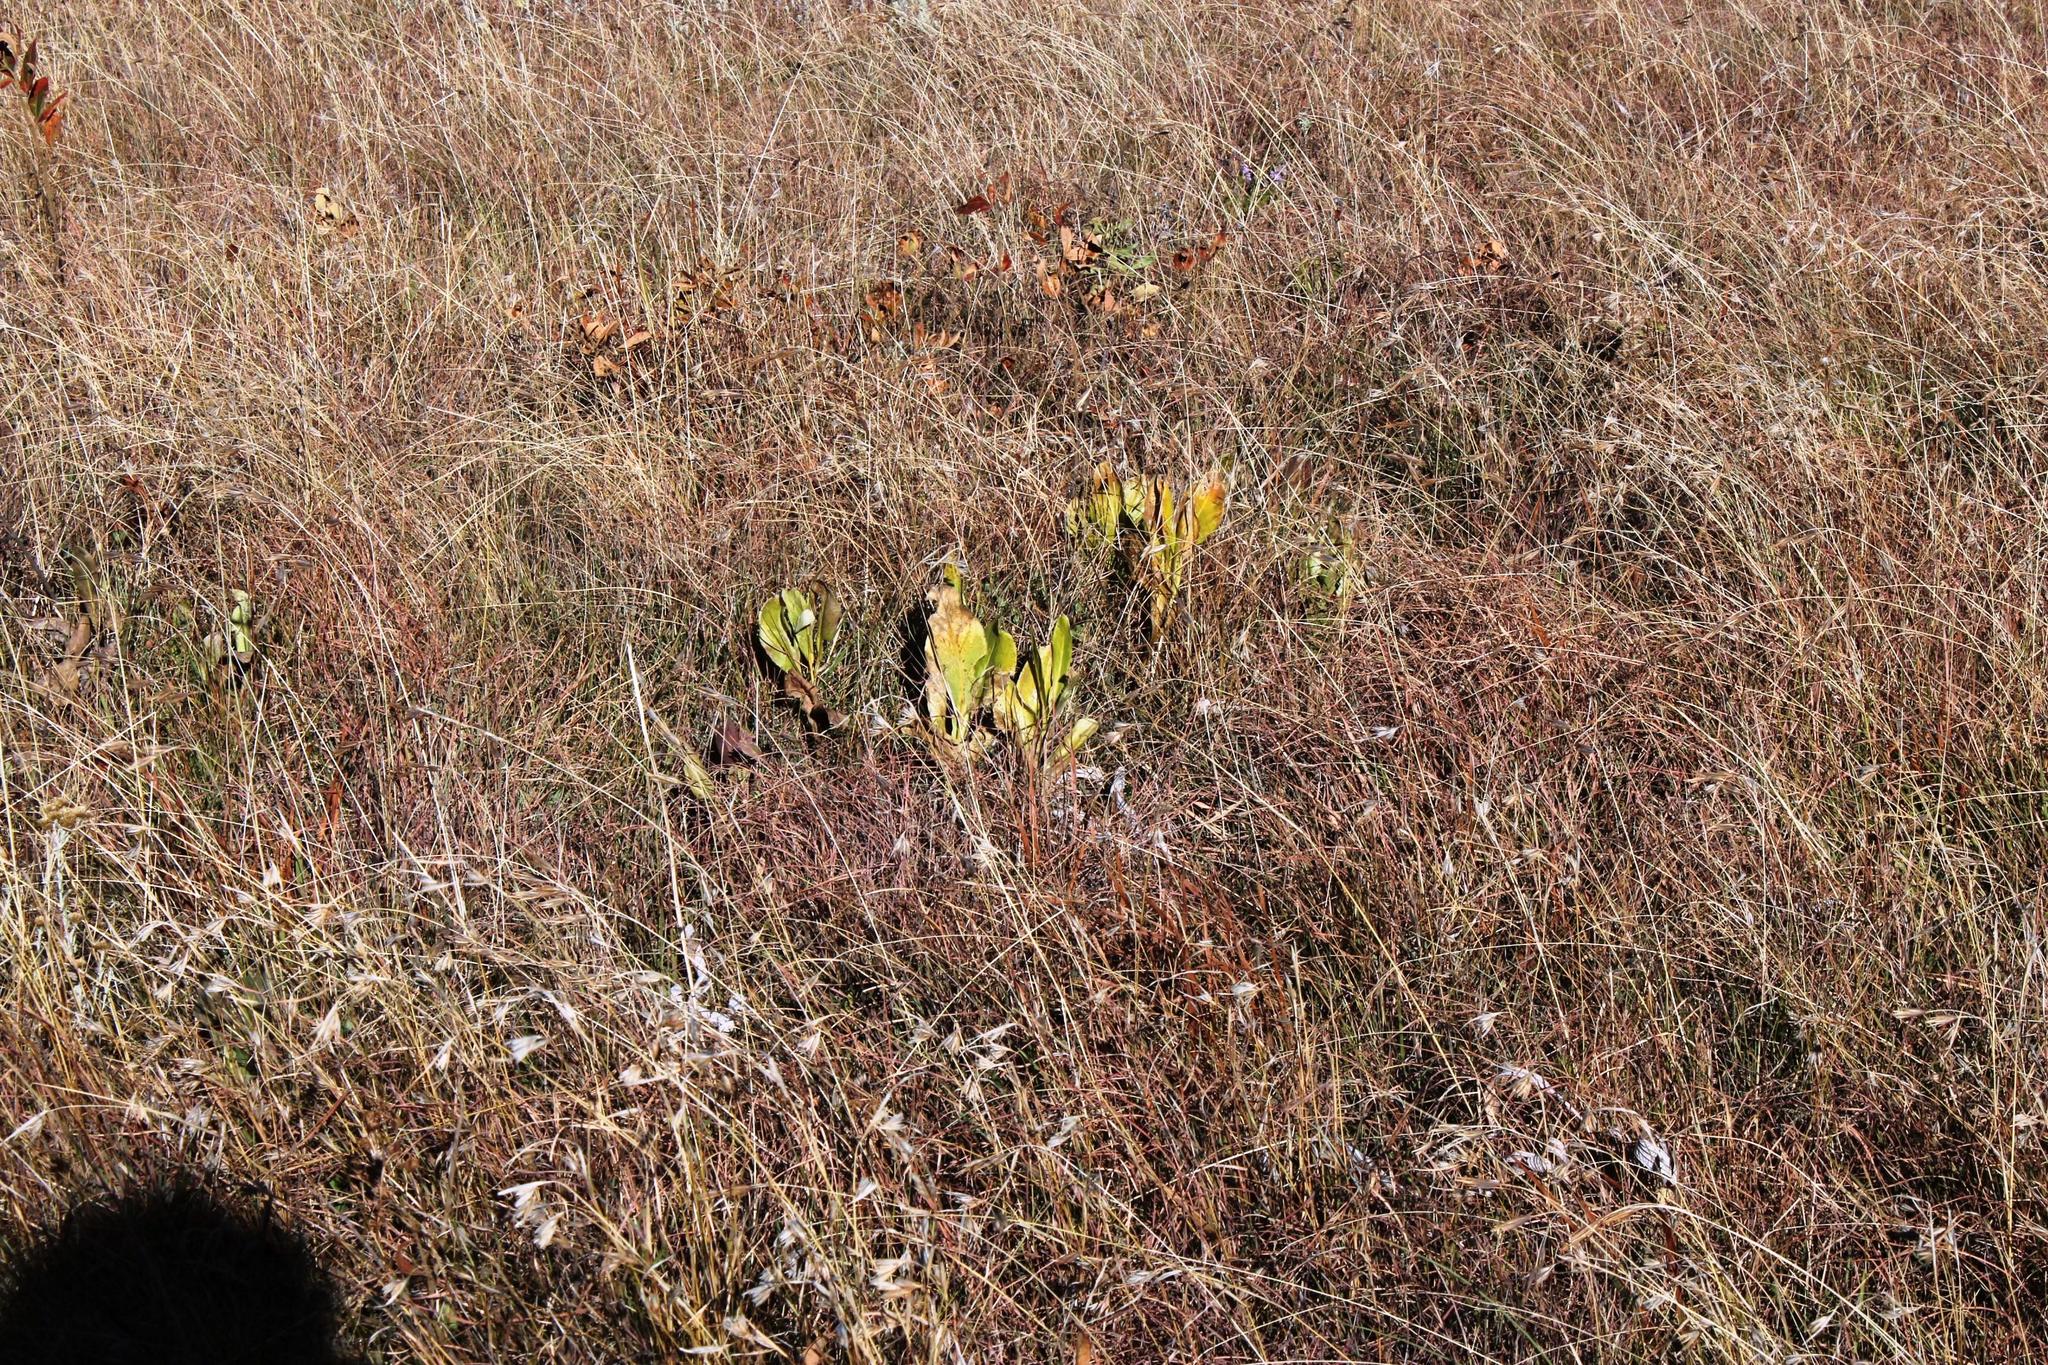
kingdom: Plantae
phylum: Tracheophyta
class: Liliopsida
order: Poales
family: Poaceae
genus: Themeda
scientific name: Themeda triandra
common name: Kangaroo grass
